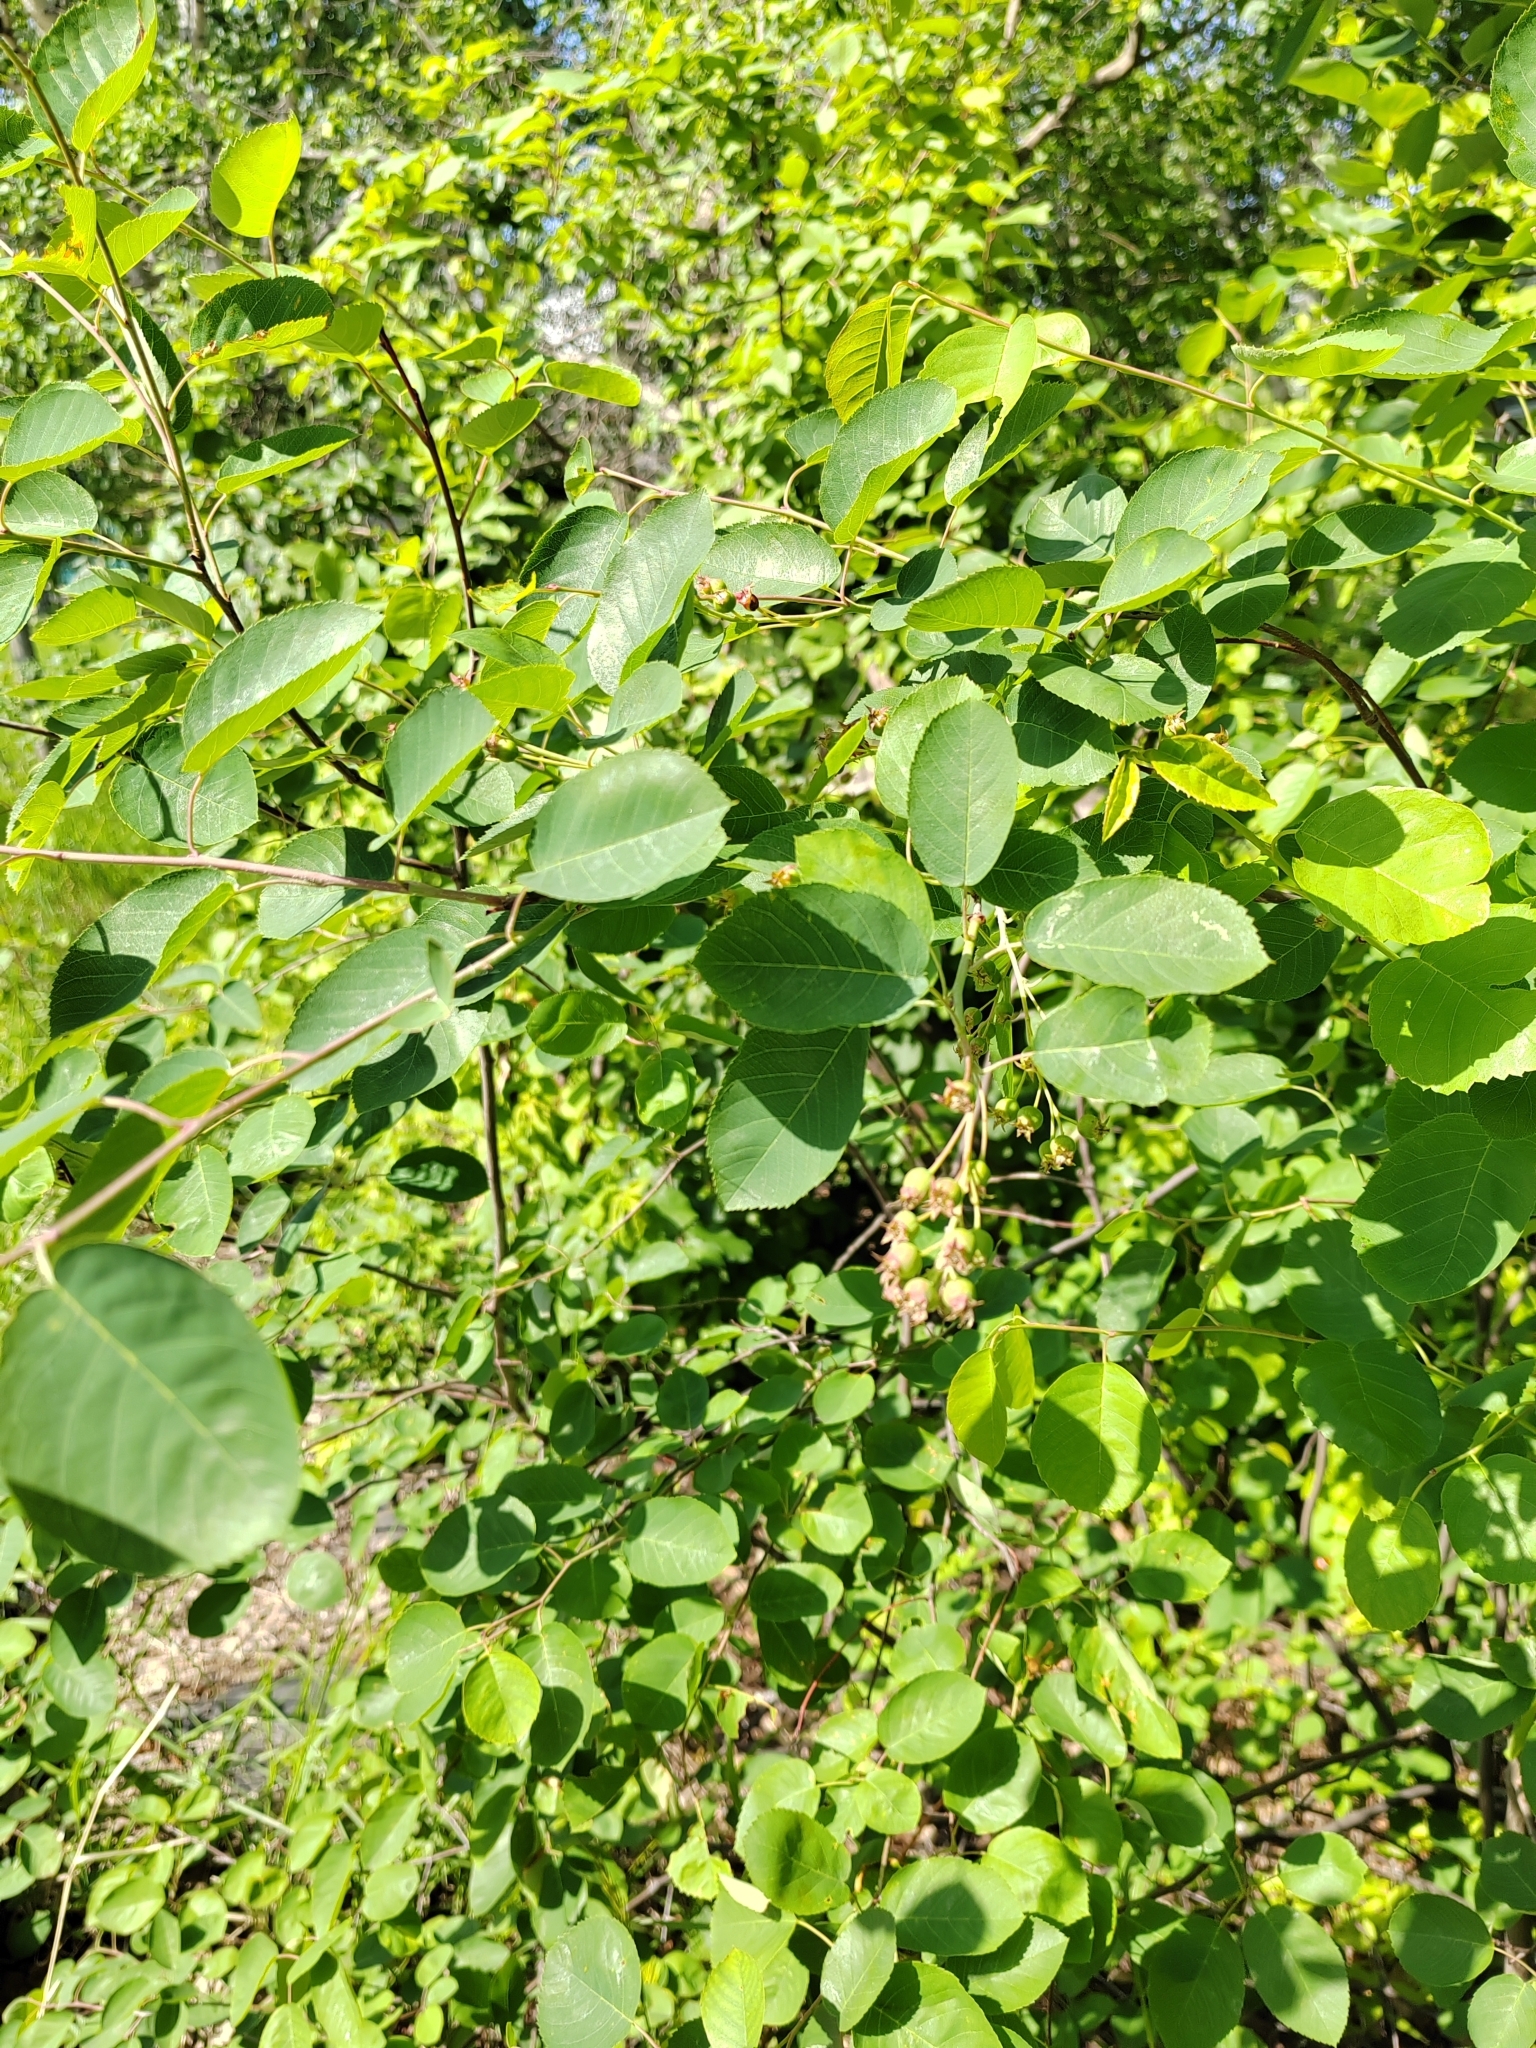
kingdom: Plantae
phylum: Tracheophyta
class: Magnoliopsida
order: Rosales
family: Rosaceae
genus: Amelanchier
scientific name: Amelanchier
